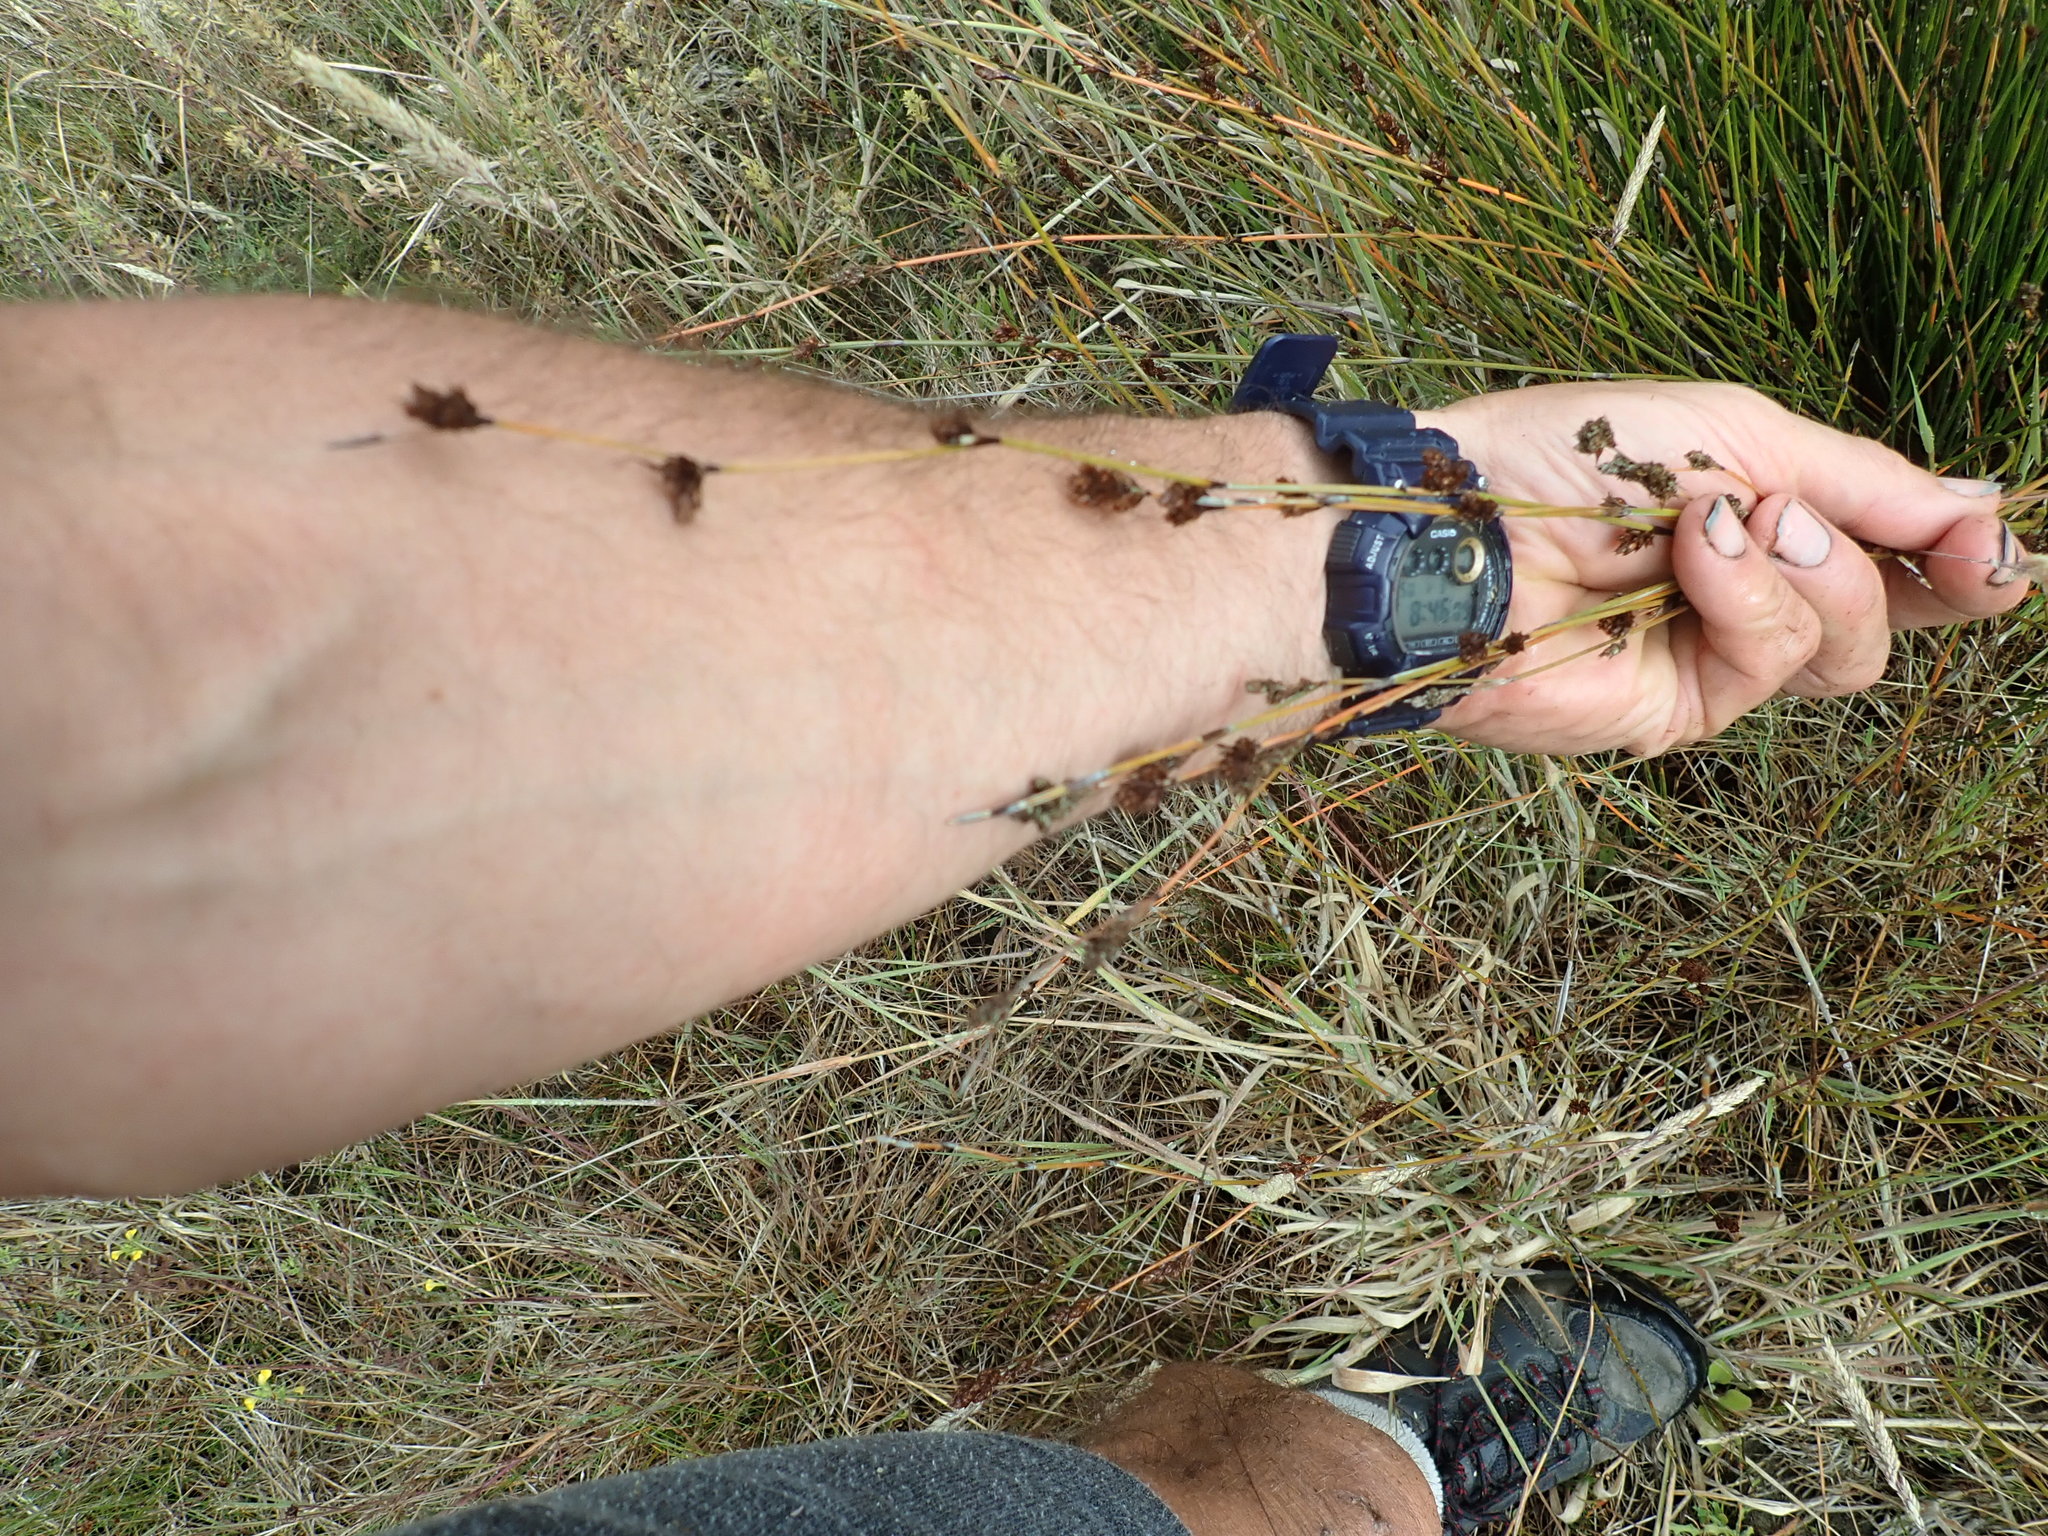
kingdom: Plantae
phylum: Tracheophyta
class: Liliopsida
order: Poales
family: Restionaceae
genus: Apodasmia
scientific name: Apodasmia similis
